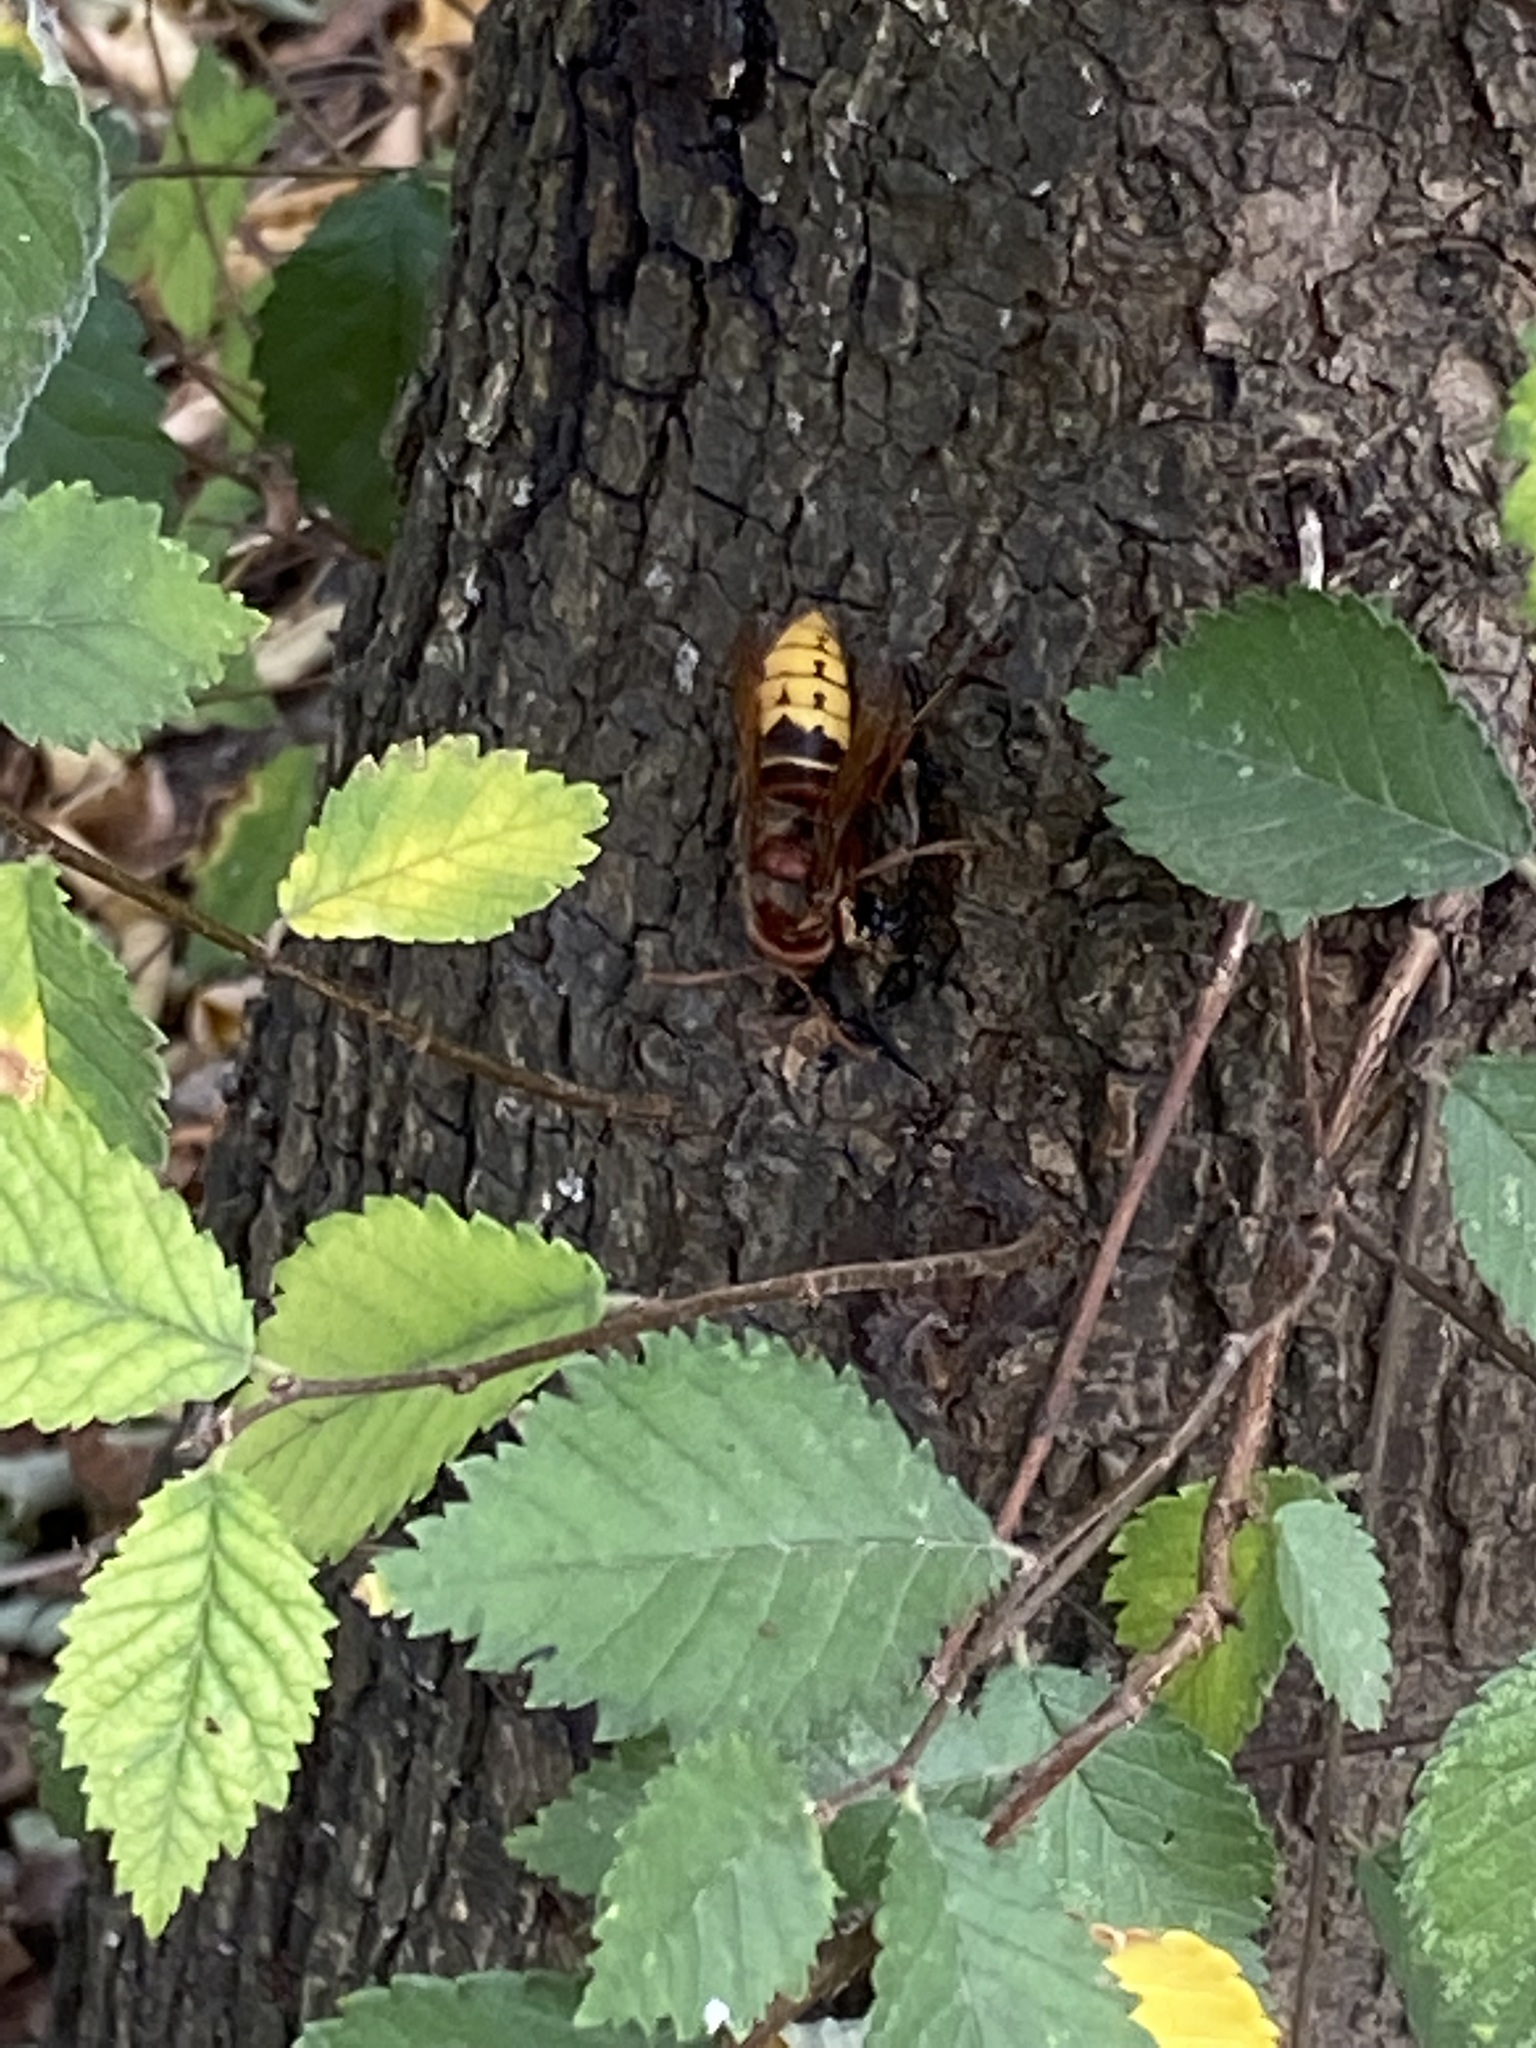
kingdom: Animalia
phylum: Arthropoda
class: Insecta
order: Hymenoptera
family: Vespidae
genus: Vespa
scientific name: Vespa crabro
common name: Hornet
